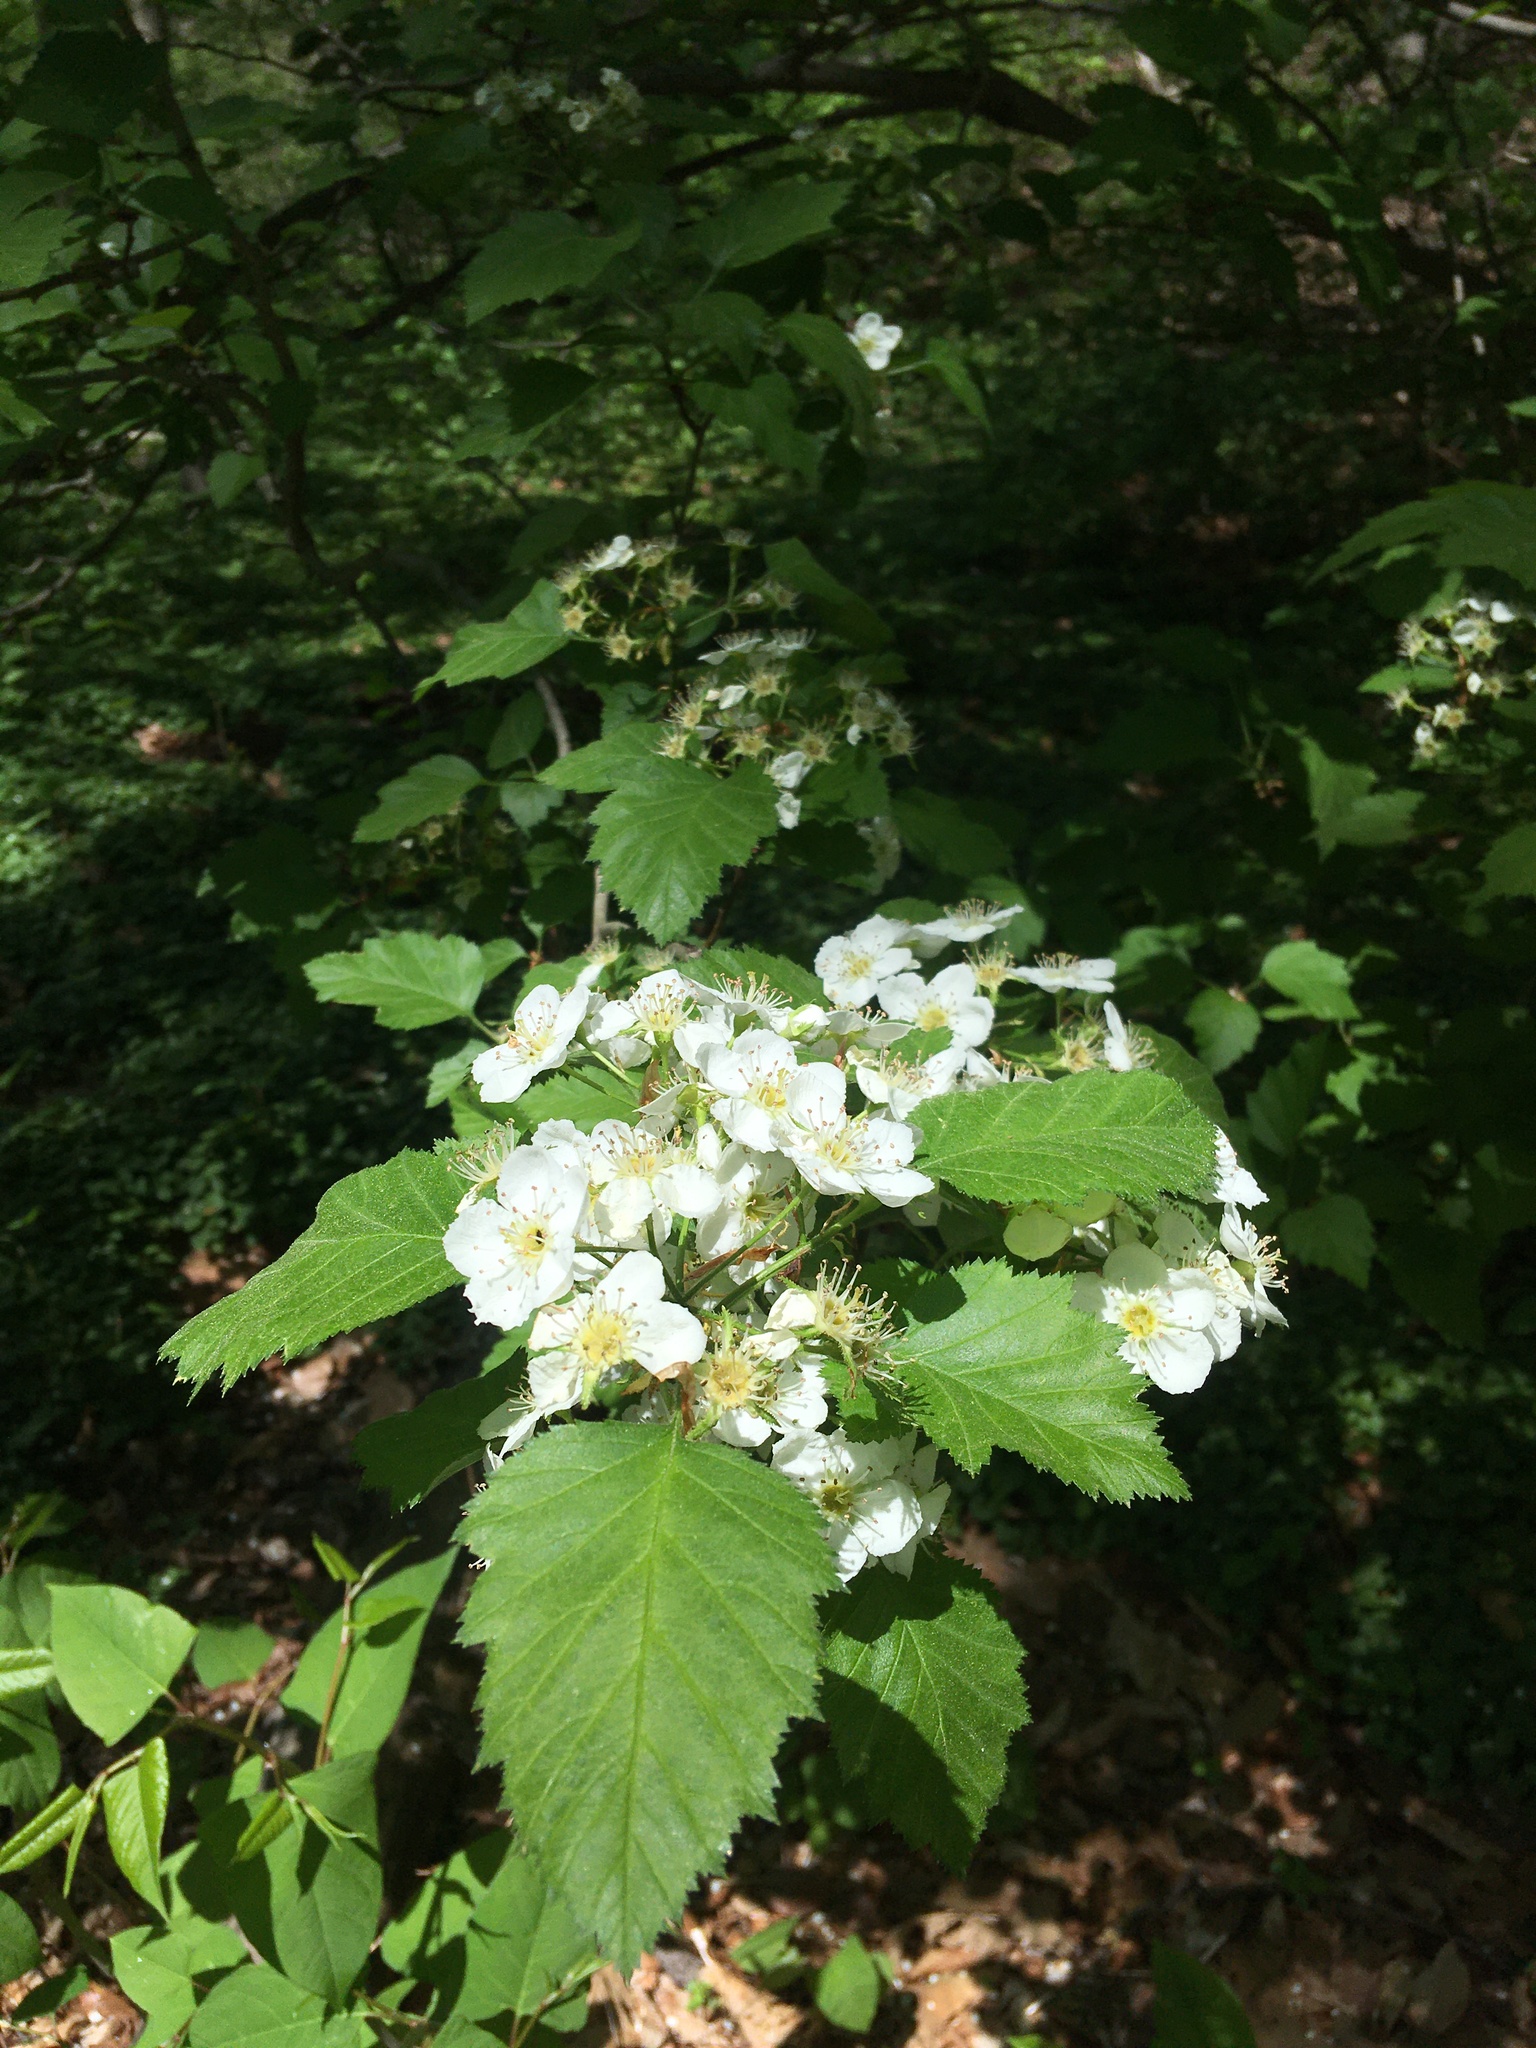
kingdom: Plantae
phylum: Tracheophyta
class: Magnoliopsida
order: Rosales
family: Rosaceae
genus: Crataegus
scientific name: Crataegus mollis
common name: Downy hawthorn
